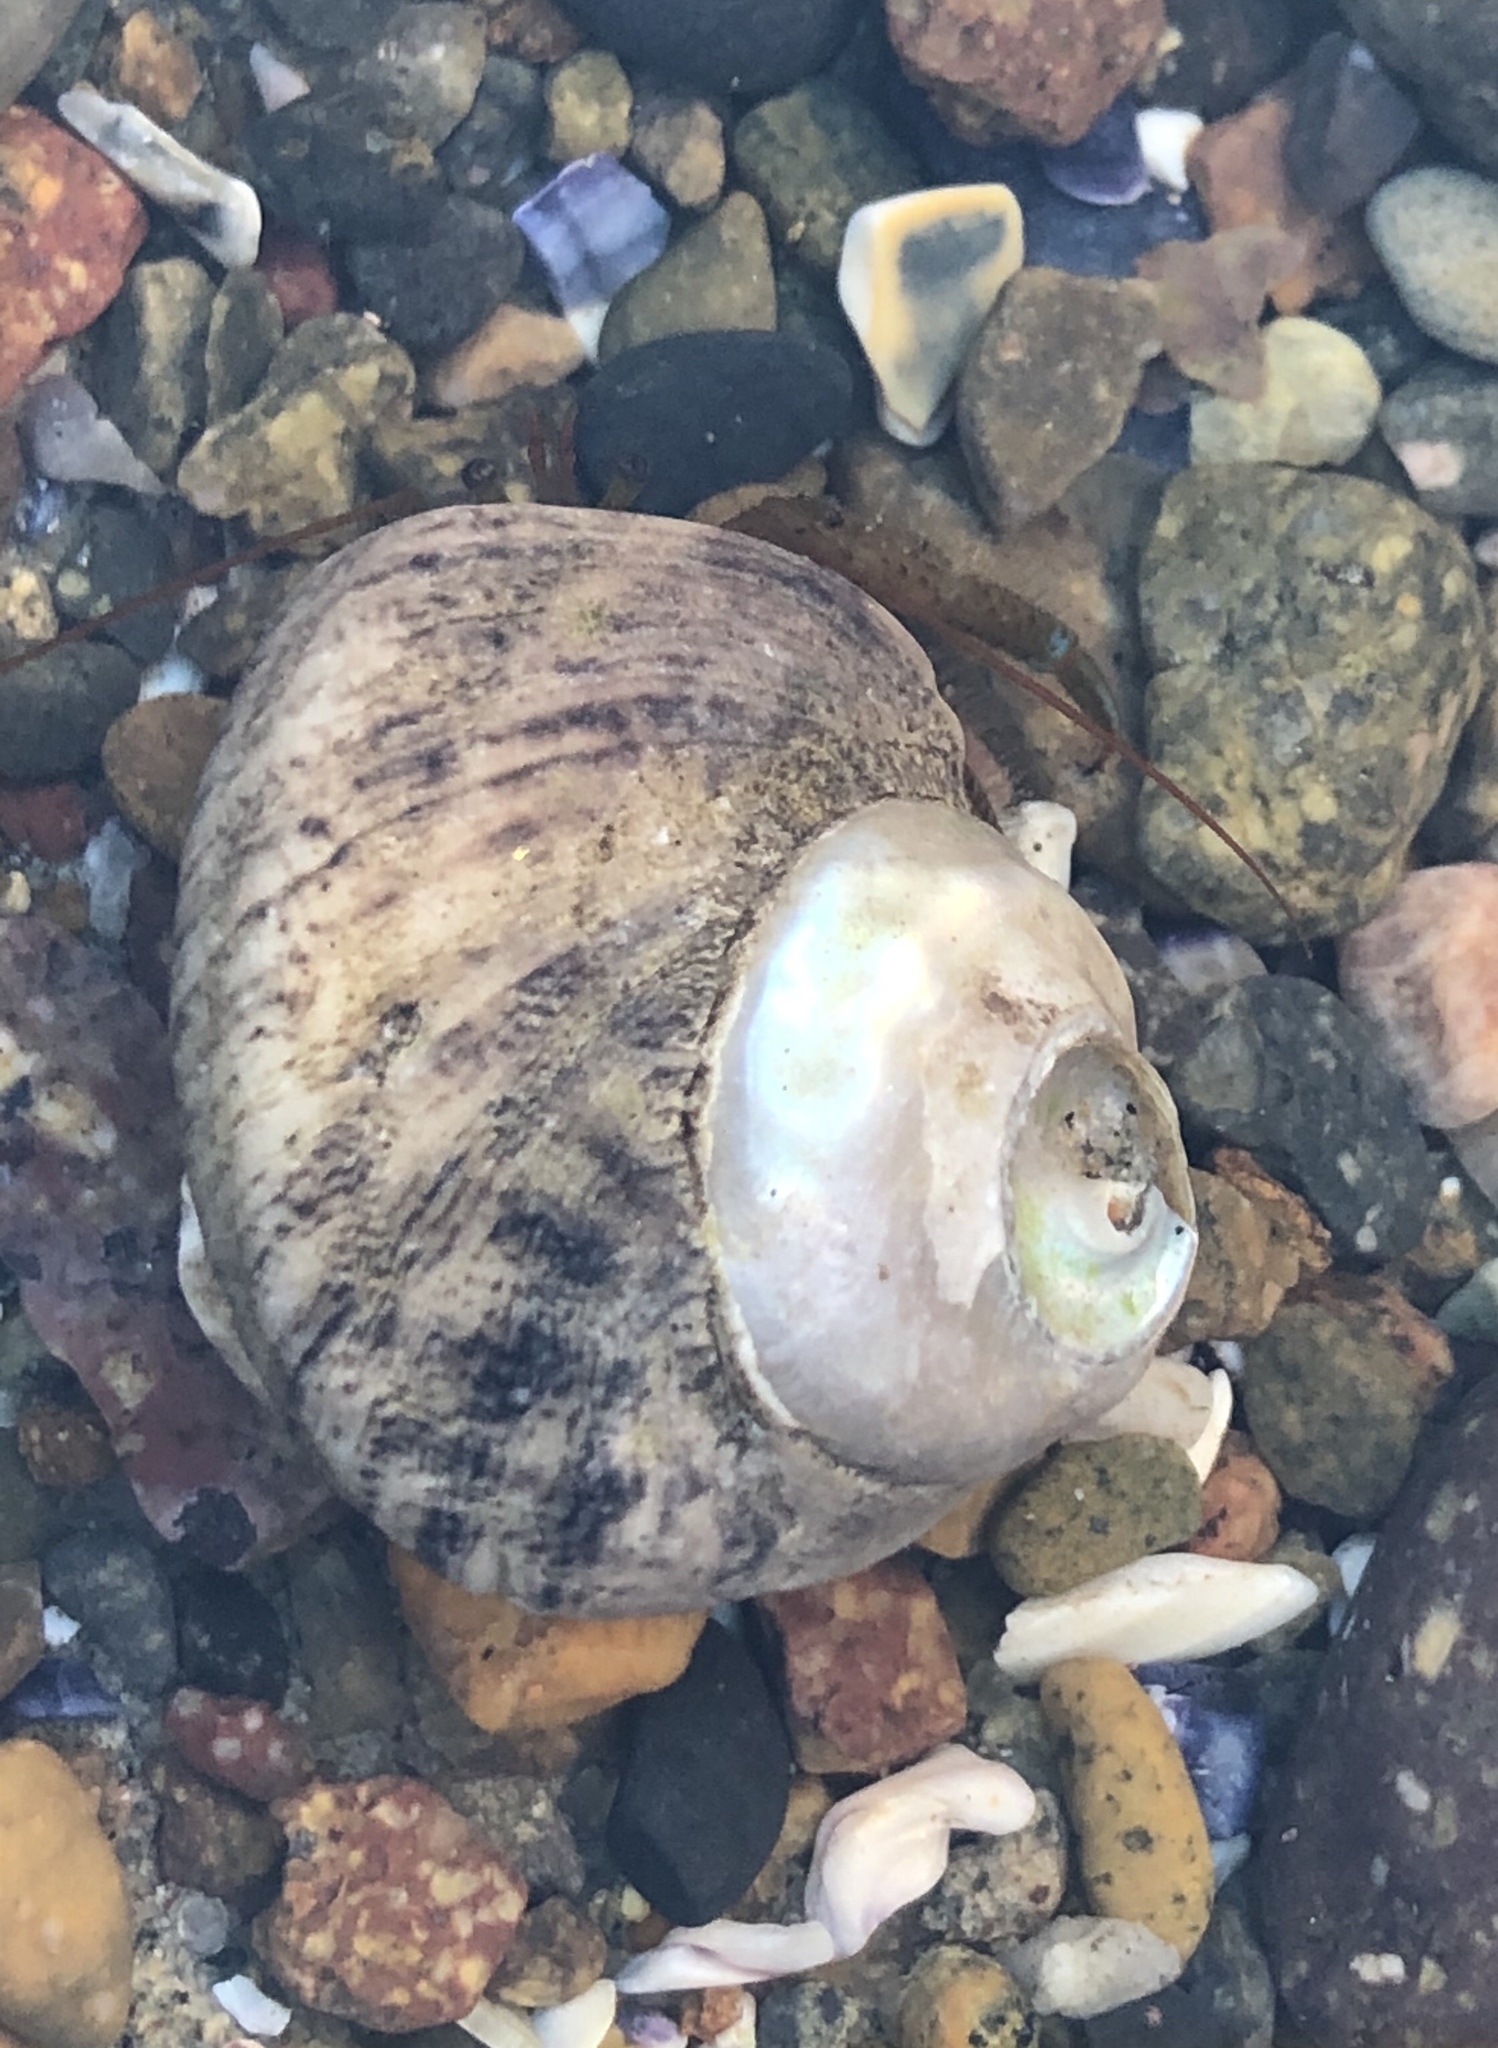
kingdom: Animalia
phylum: Arthropoda
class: Malacostraca
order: Decapoda
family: Paguridae
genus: Pagurus
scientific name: Pagurus samuelis
